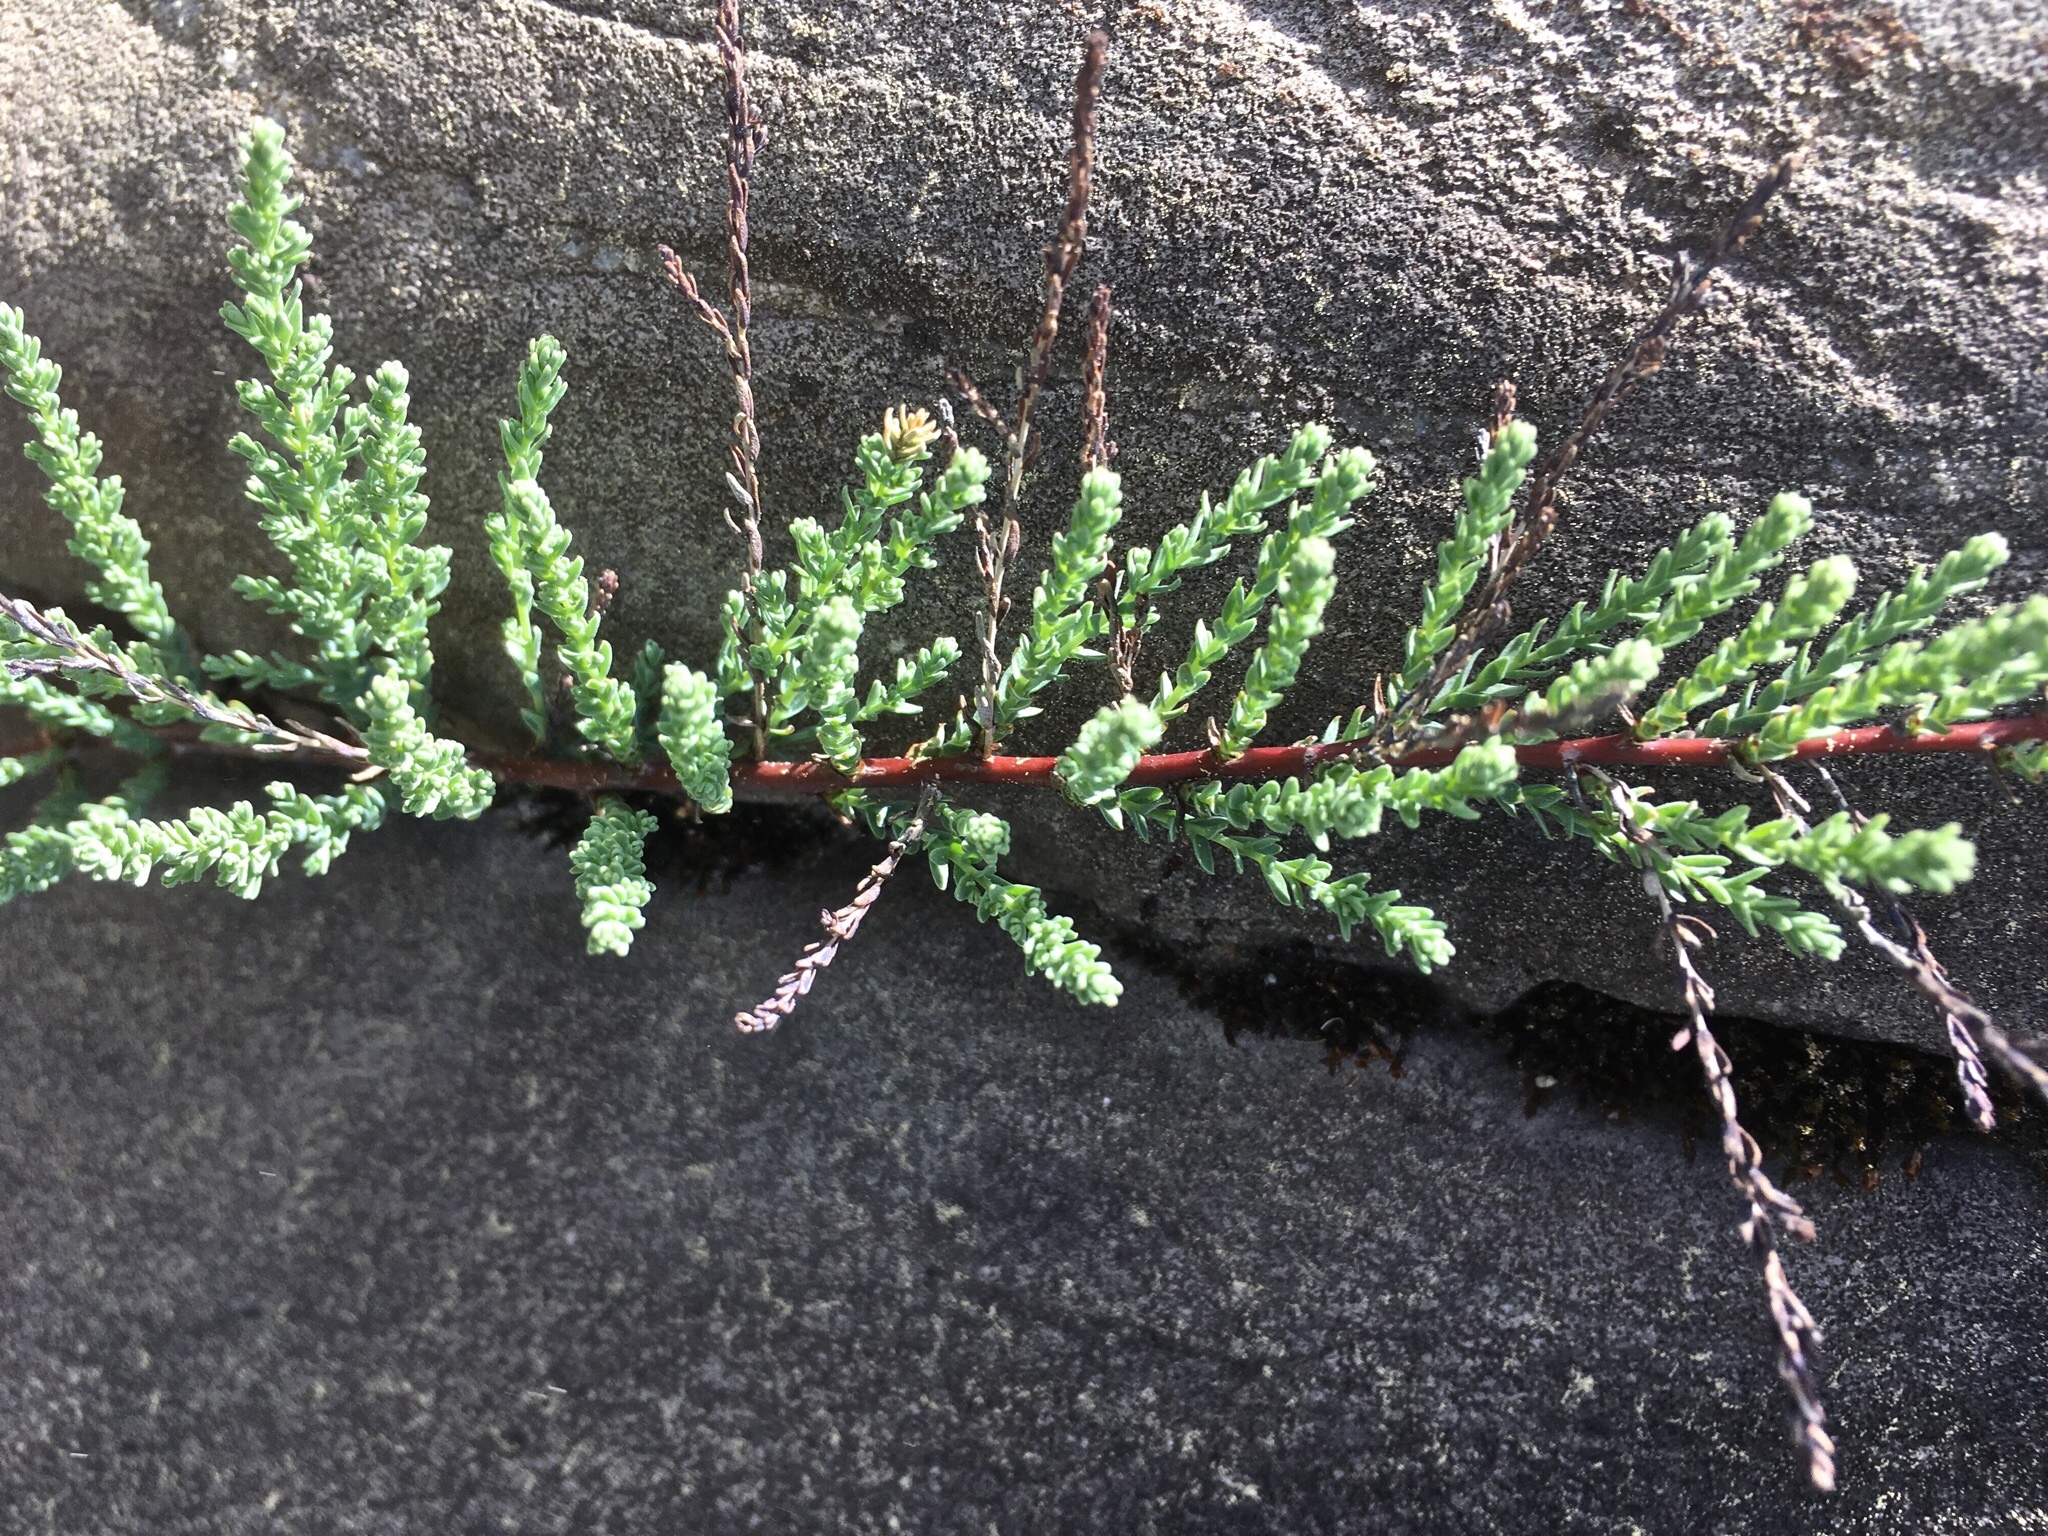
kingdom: Plantae
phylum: Tracheophyta
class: Magnoliopsida
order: Caryophyllales
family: Tamaricaceae
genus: Myricaria
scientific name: Myricaria germanica
